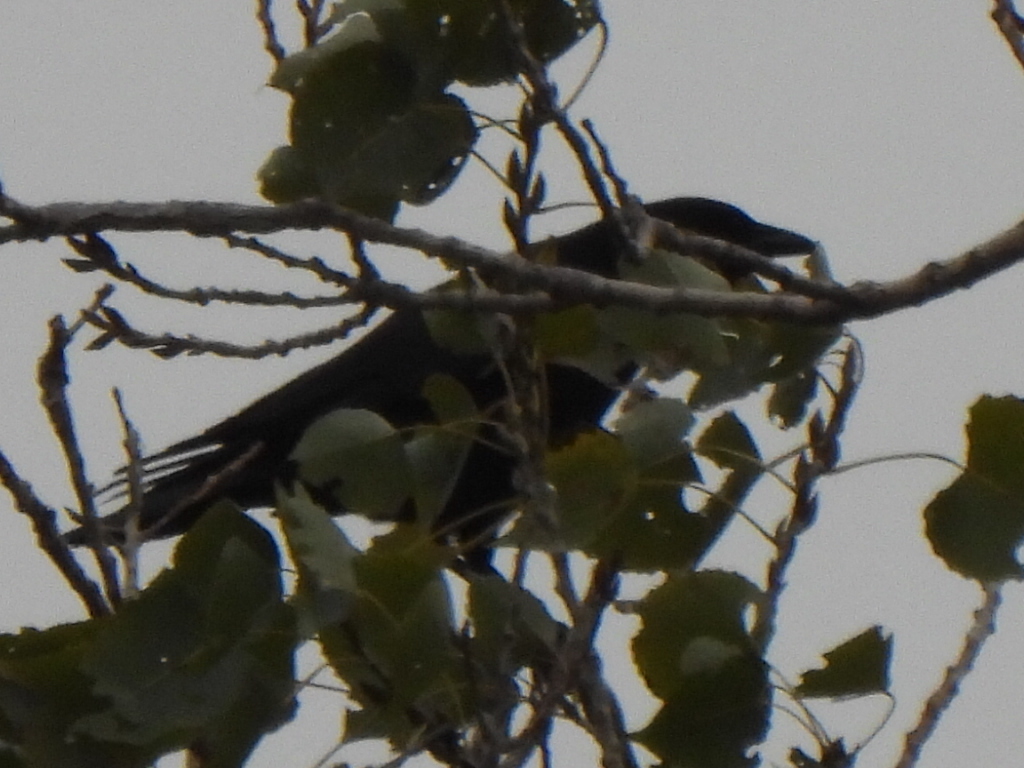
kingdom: Animalia
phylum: Chordata
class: Aves
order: Passeriformes
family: Corvidae
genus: Corvus
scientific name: Corvus brachyrhynchos
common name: American crow
